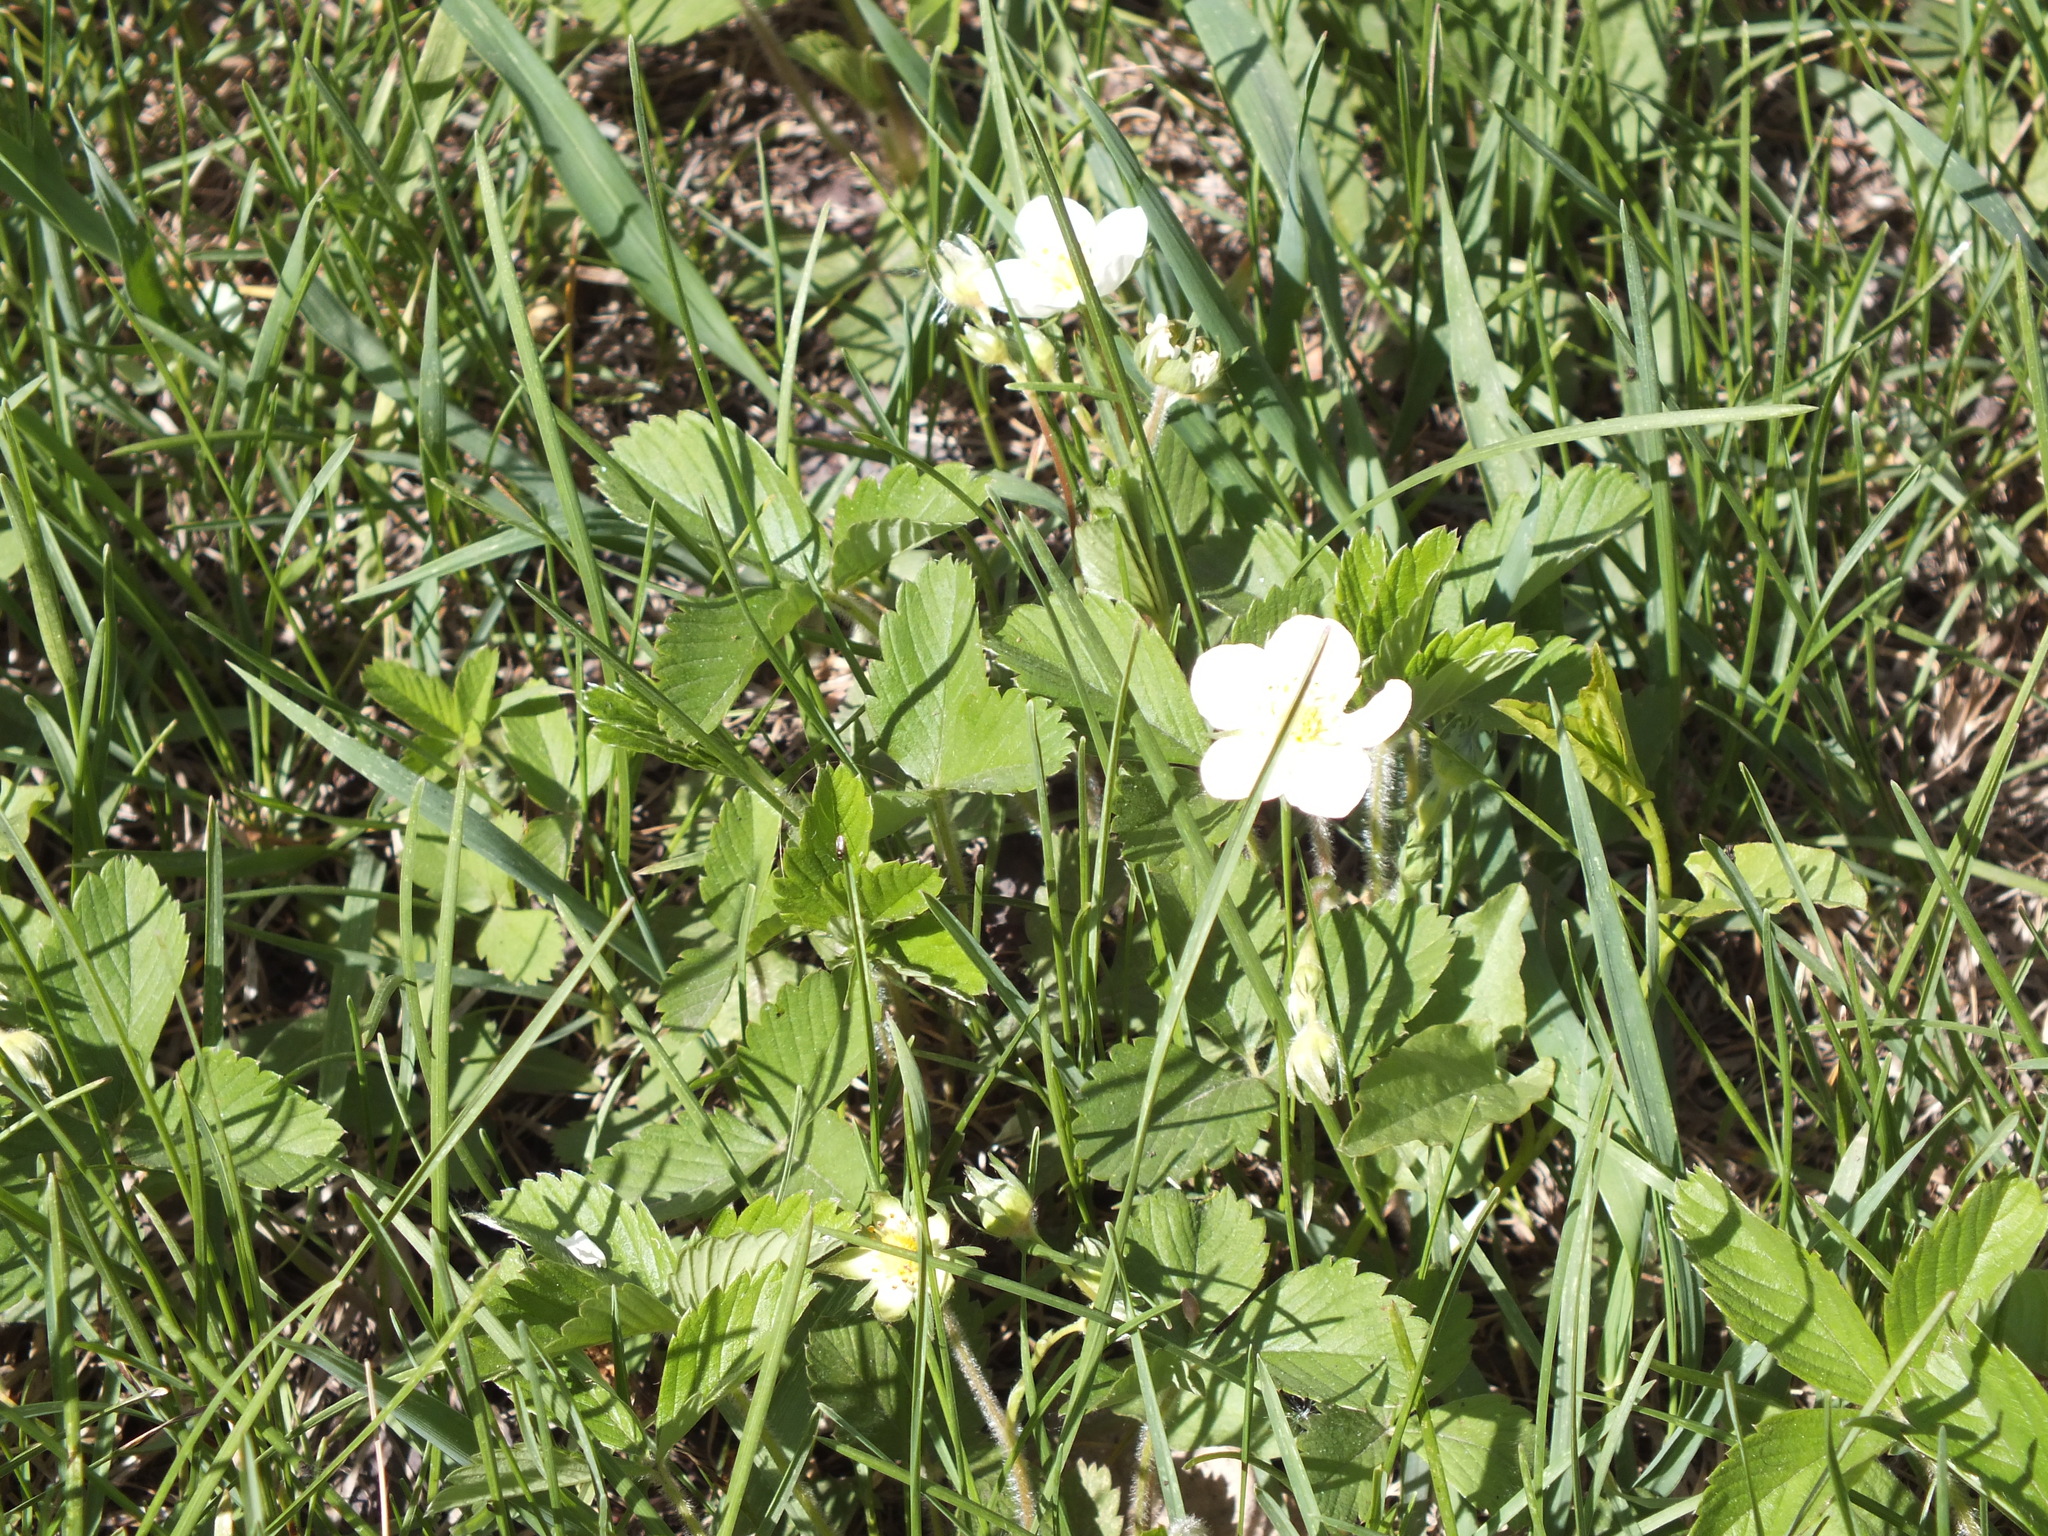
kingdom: Plantae
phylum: Tracheophyta
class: Magnoliopsida
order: Rosales
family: Rosaceae
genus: Fragaria
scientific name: Fragaria viridis
